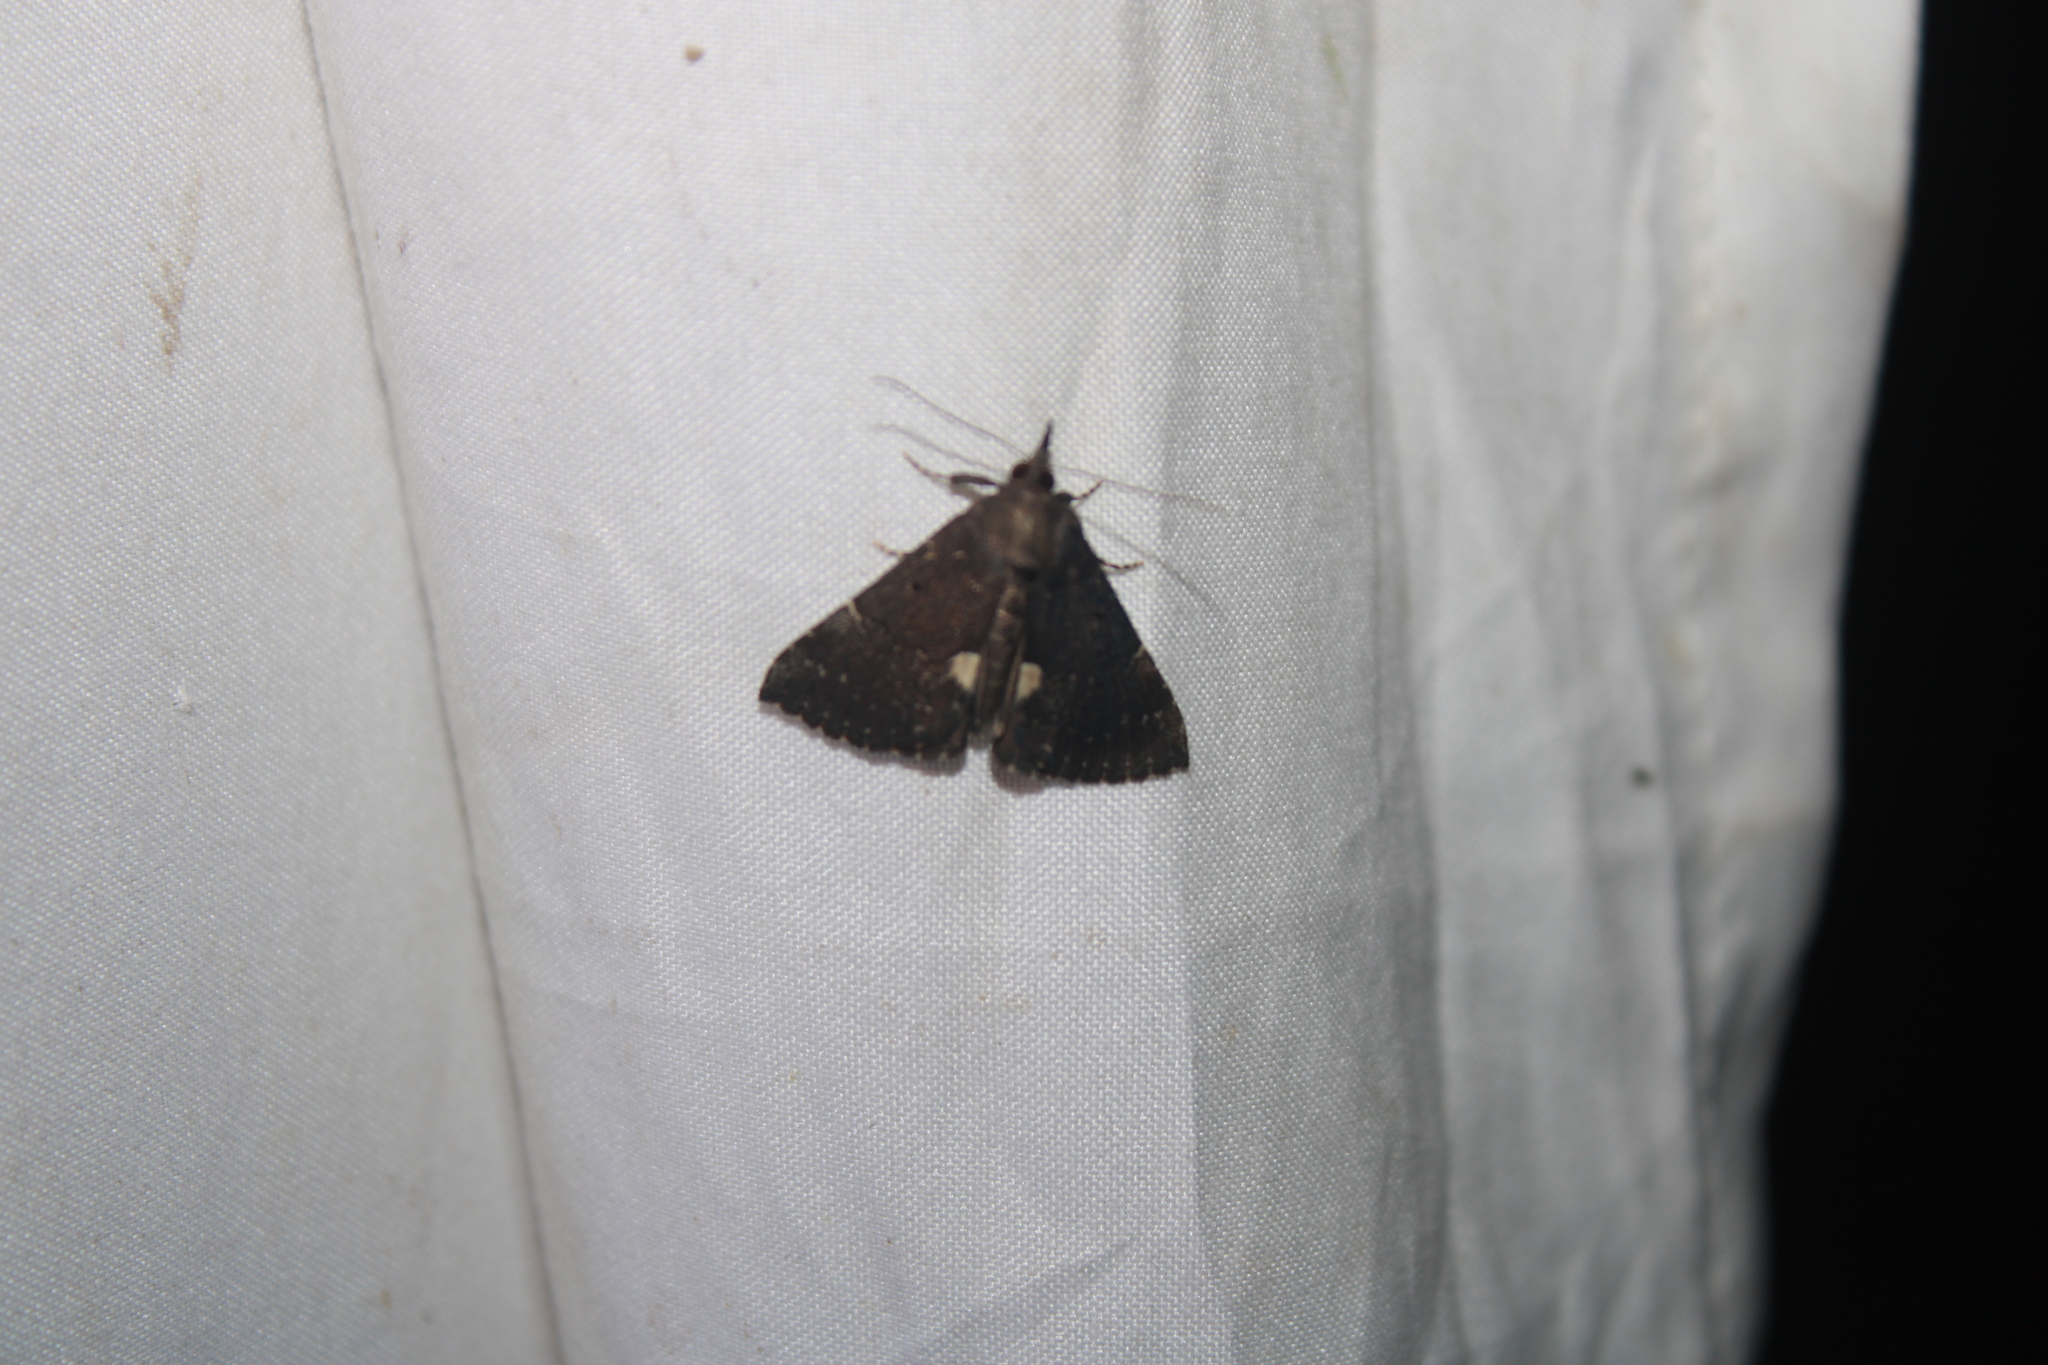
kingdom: Animalia
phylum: Arthropoda
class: Insecta
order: Lepidoptera
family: Erebidae
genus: Hypena
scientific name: Hypena bijugalis
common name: Dimorphic bomolocha moth
